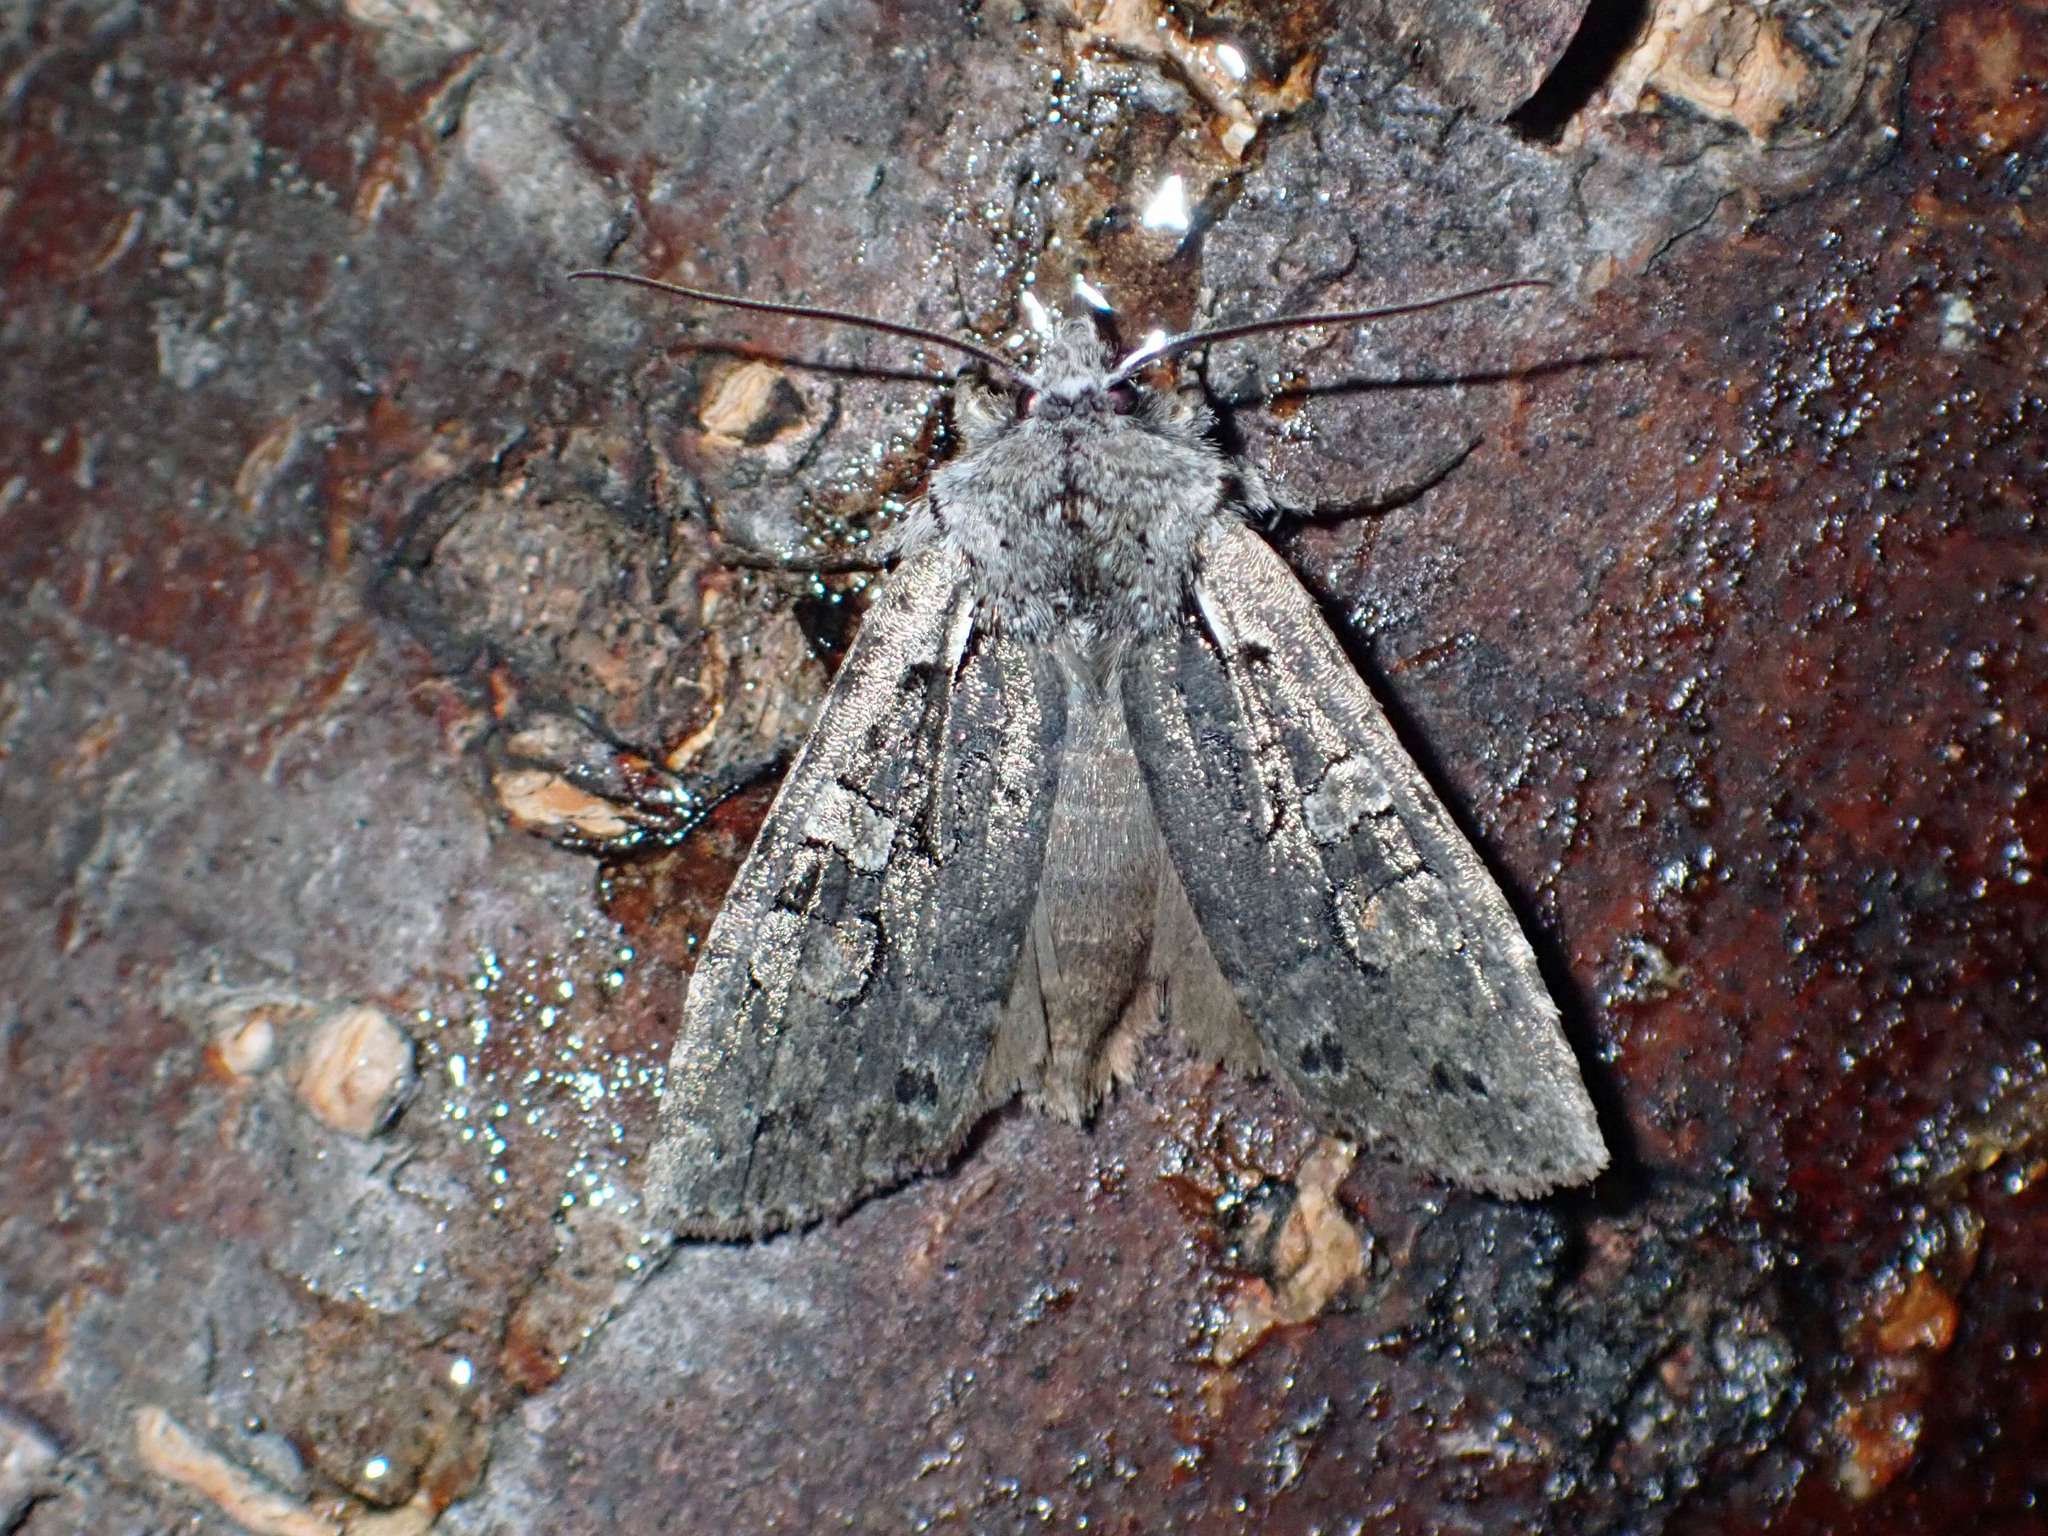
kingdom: Animalia
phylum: Arthropoda
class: Insecta
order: Lepidoptera
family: Noctuidae
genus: Lithophane
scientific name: Lithophane baileyi
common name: Bailey's pinion moth
